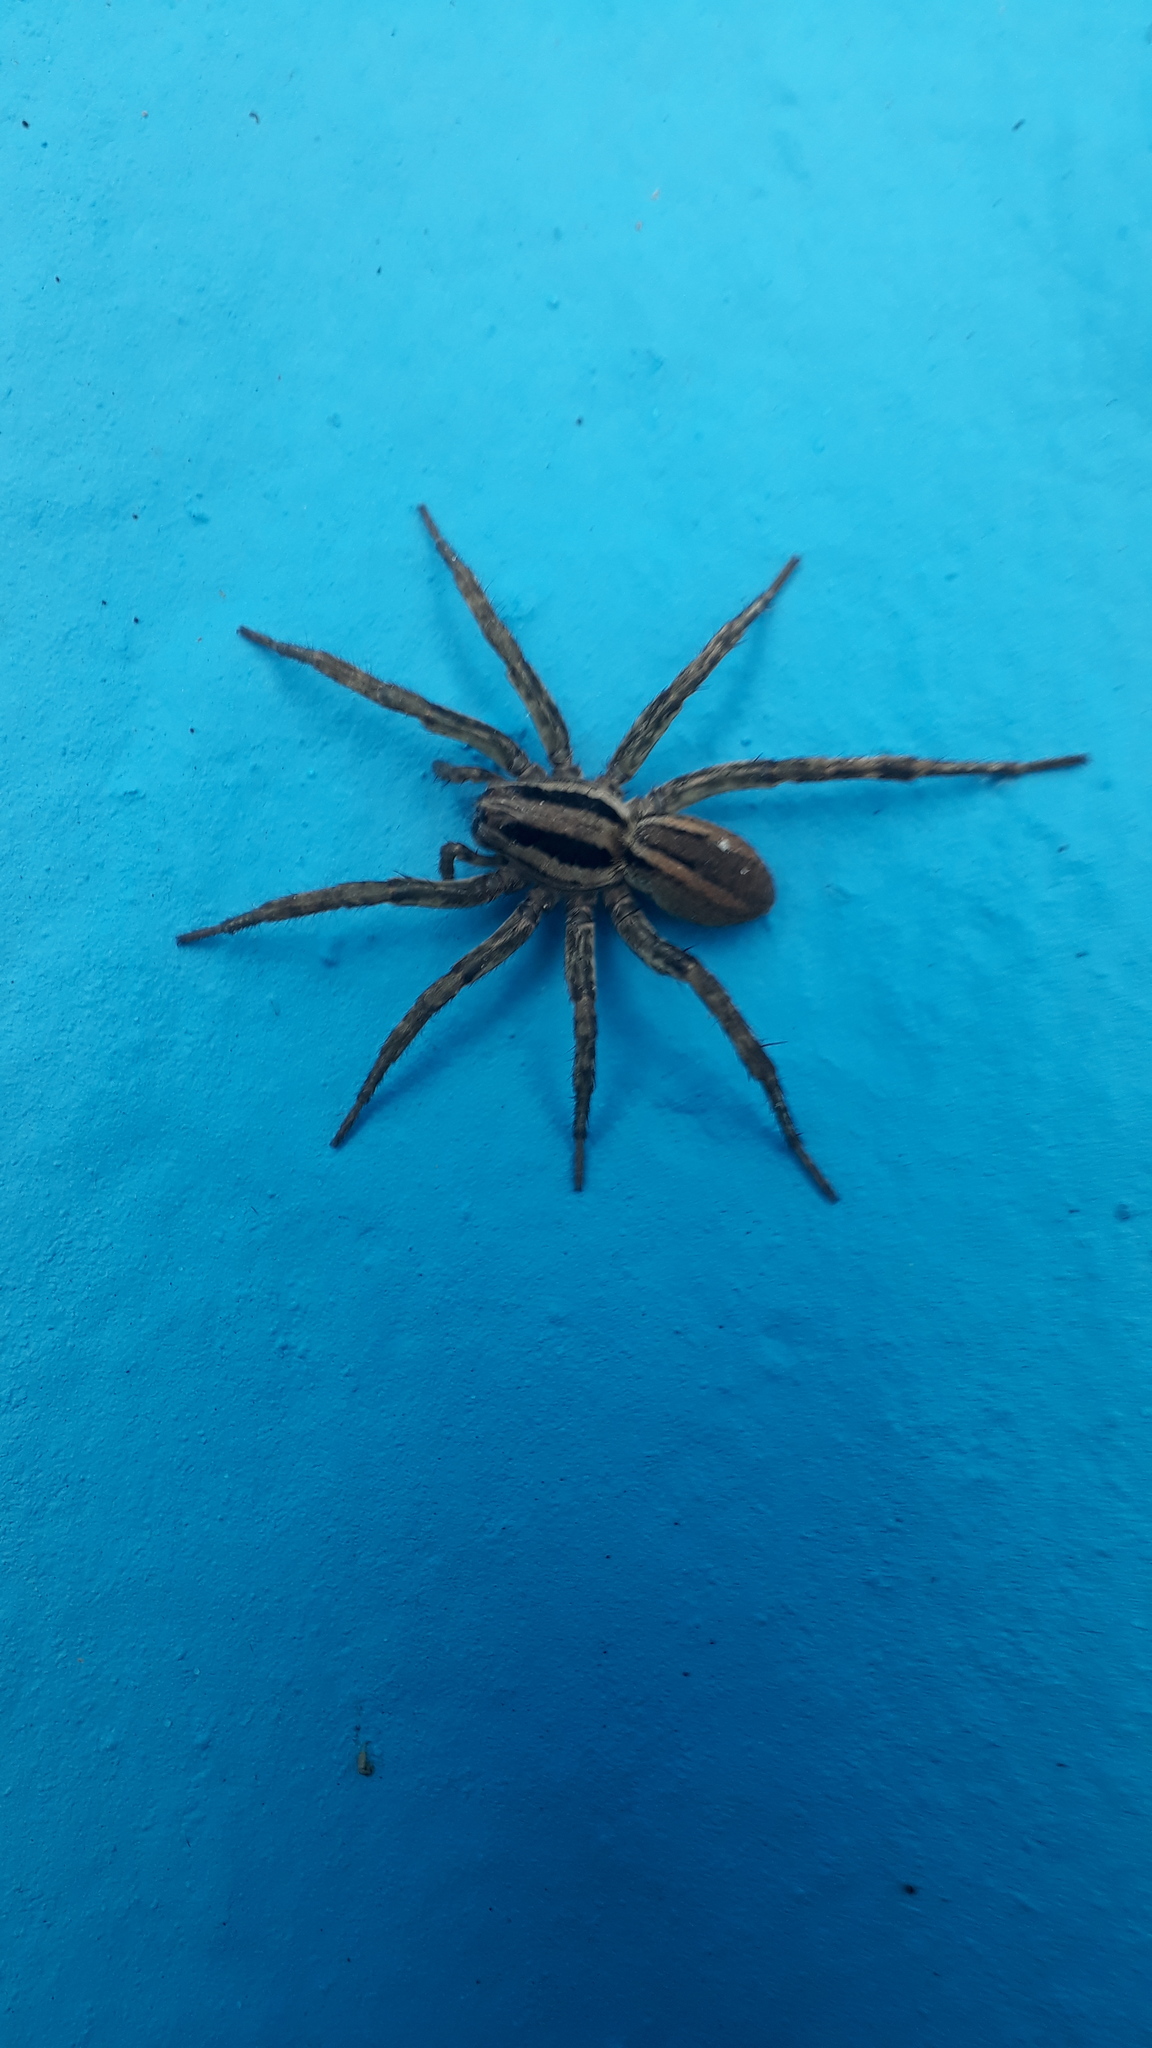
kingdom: Animalia
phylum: Arthropoda
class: Arachnida
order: Araneae
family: Lycosidae
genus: Hogna
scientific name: Hogna bivittata
